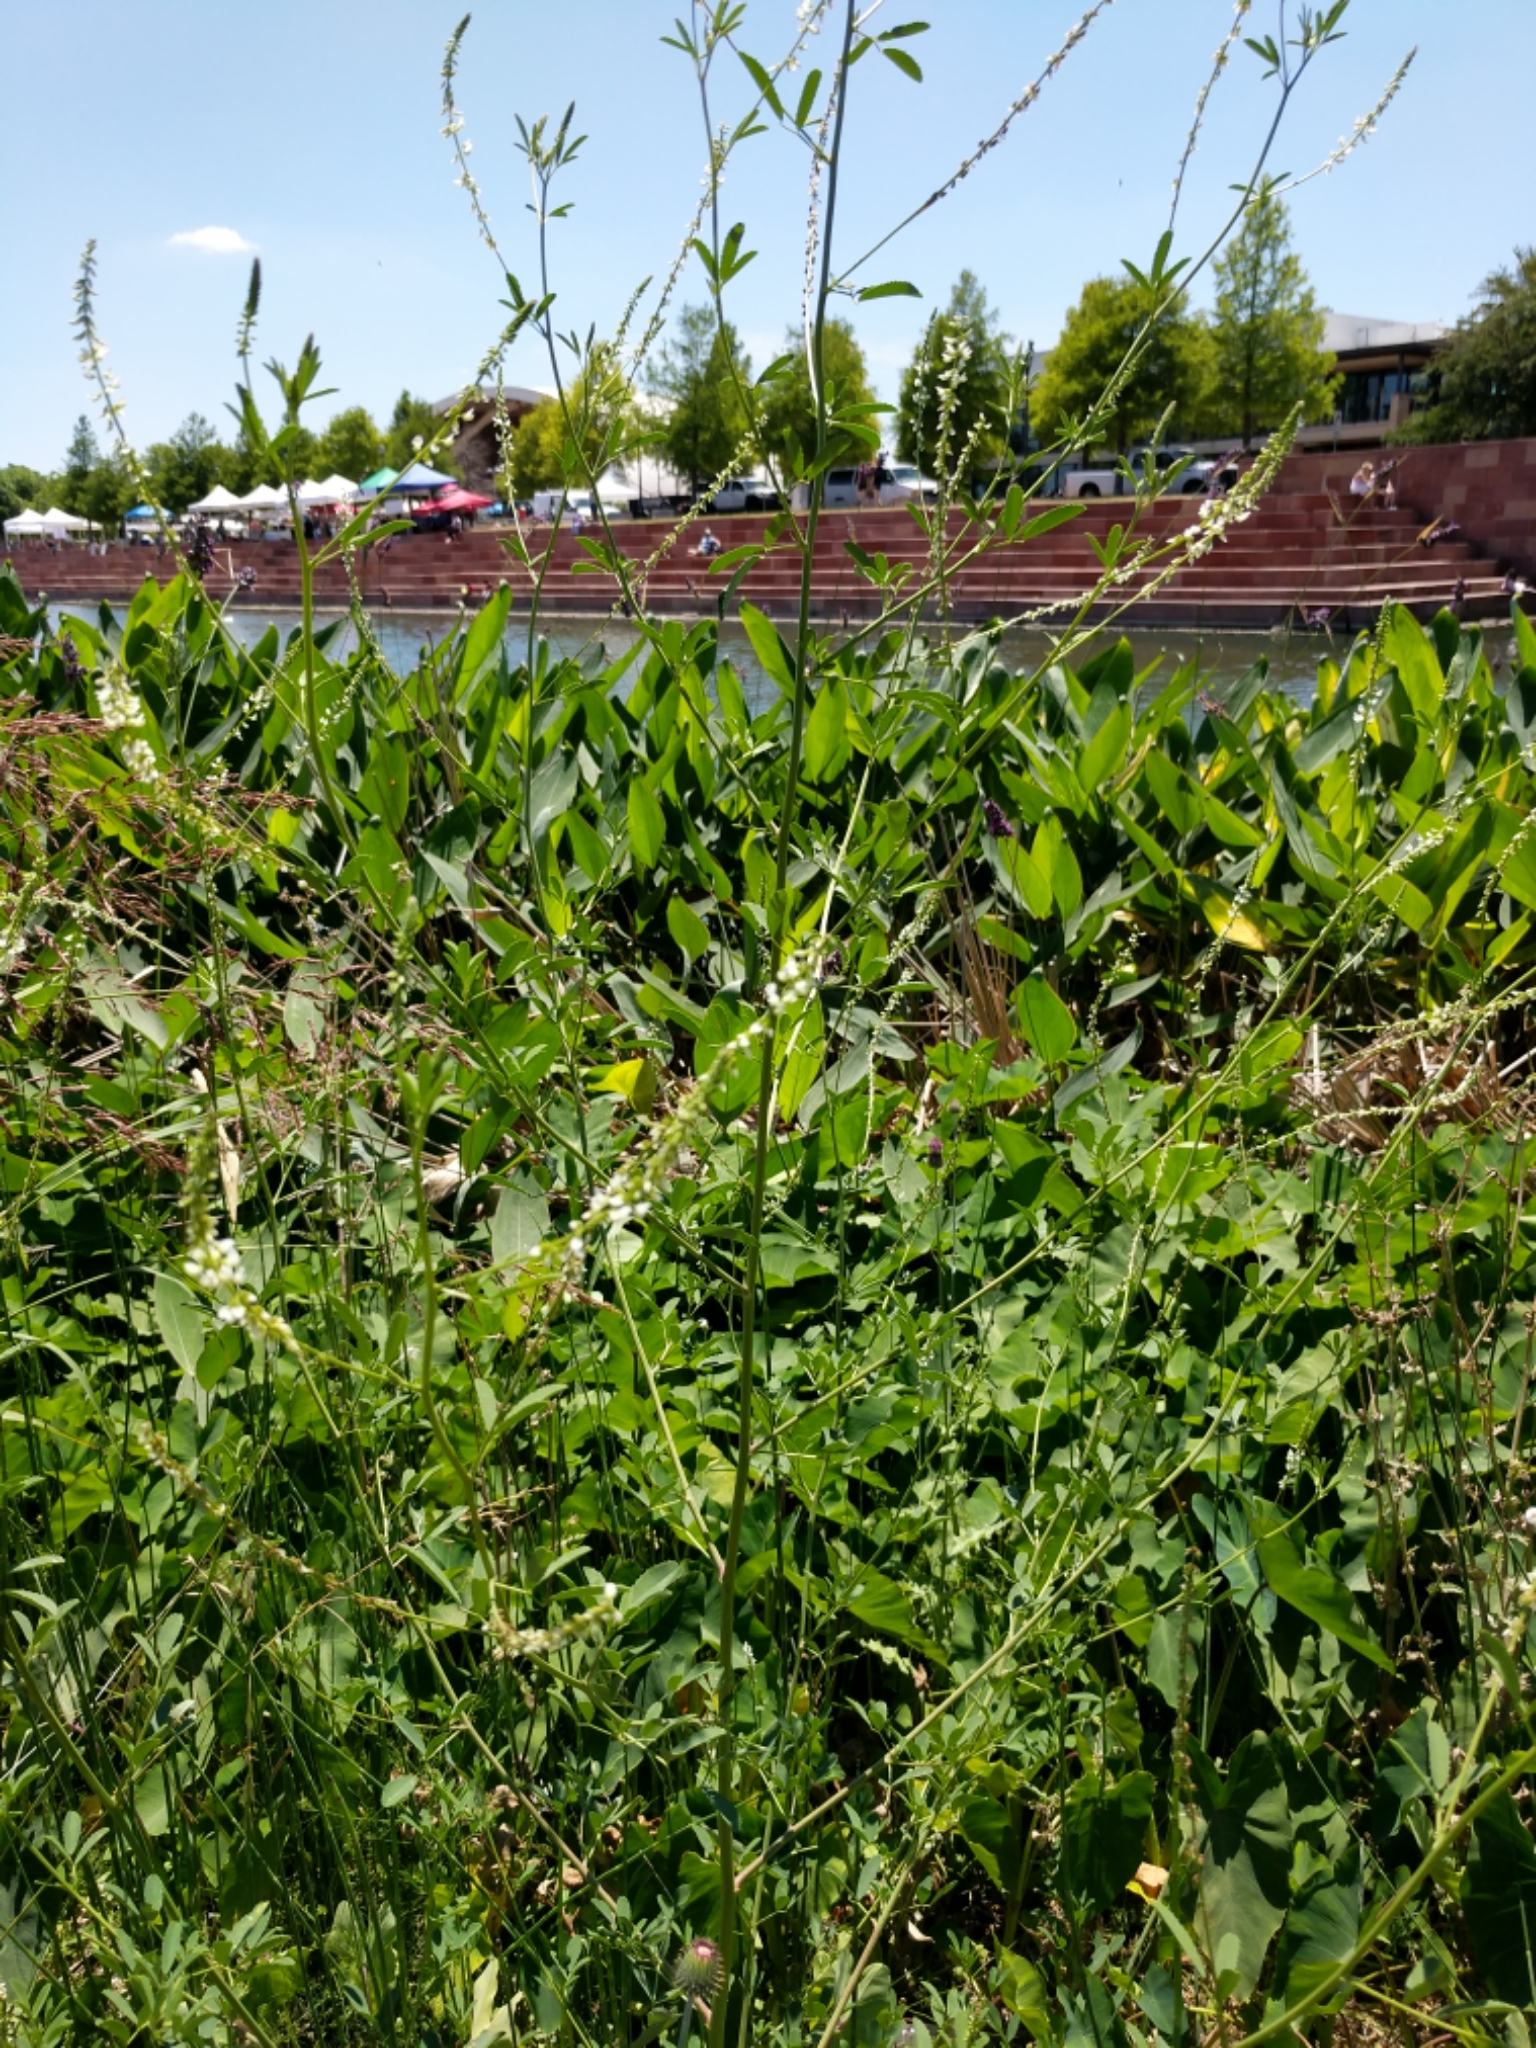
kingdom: Plantae
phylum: Tracheophyta
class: Magnoliopsida
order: Fabales
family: Fabaceae
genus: Melilotus
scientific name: Melilotus albus
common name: White melilot
